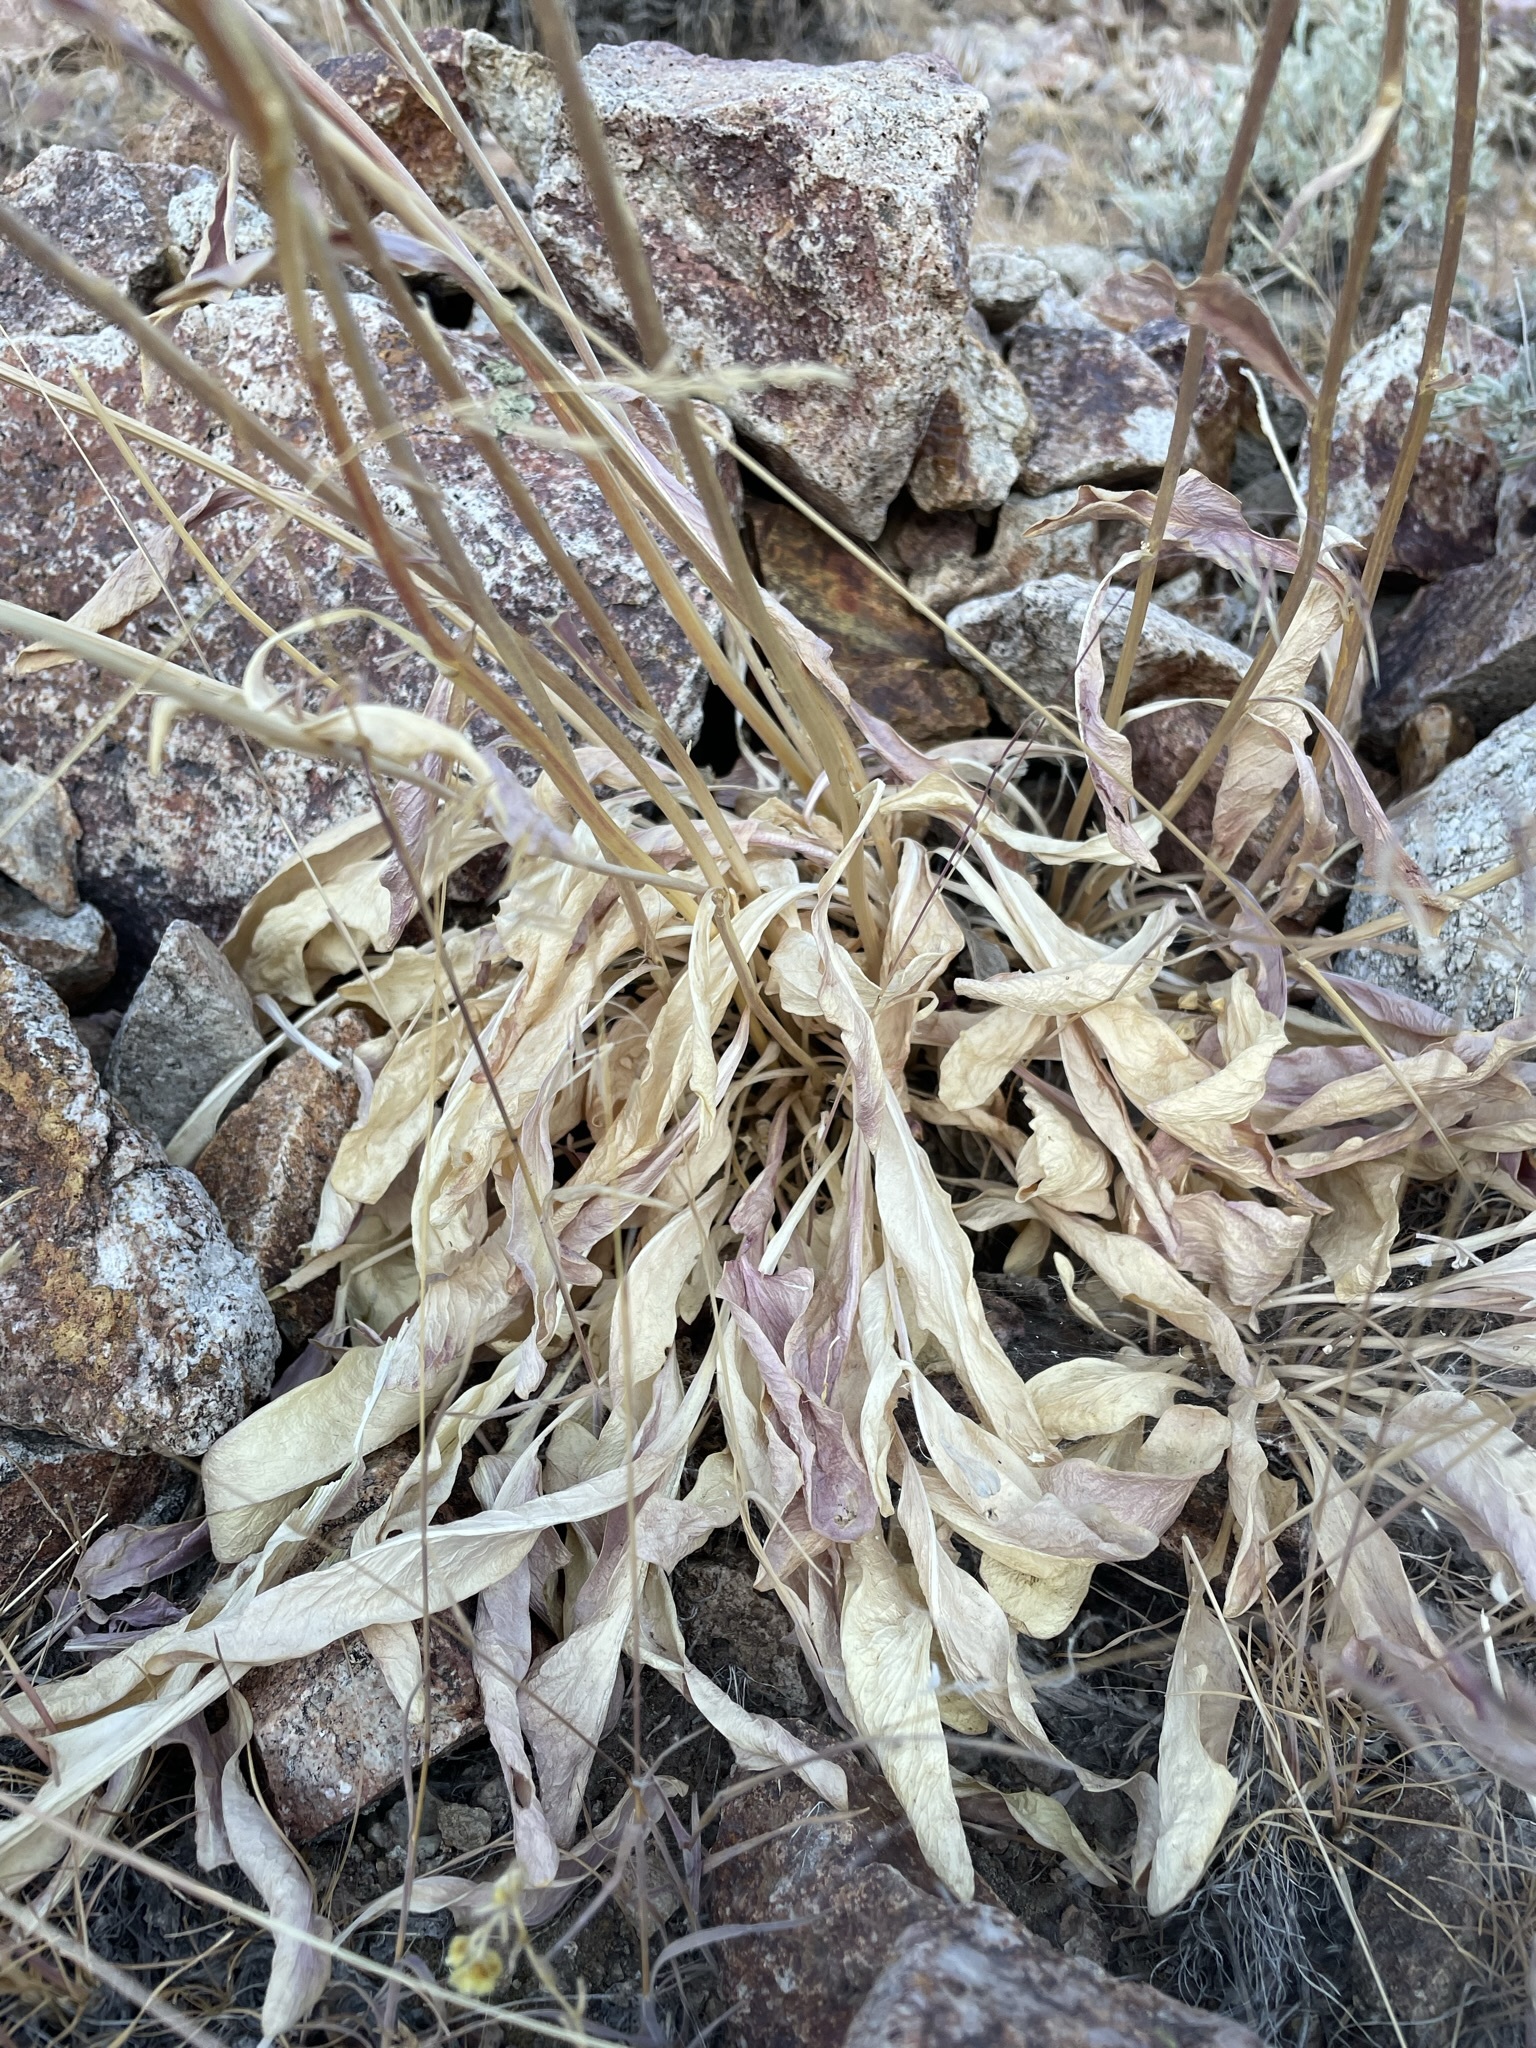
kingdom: Plantae
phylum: Tracheophyta
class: Magnoliopsida
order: Brassicales
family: Brassicaceae
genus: Lepidium
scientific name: Lepidium tiehmii
